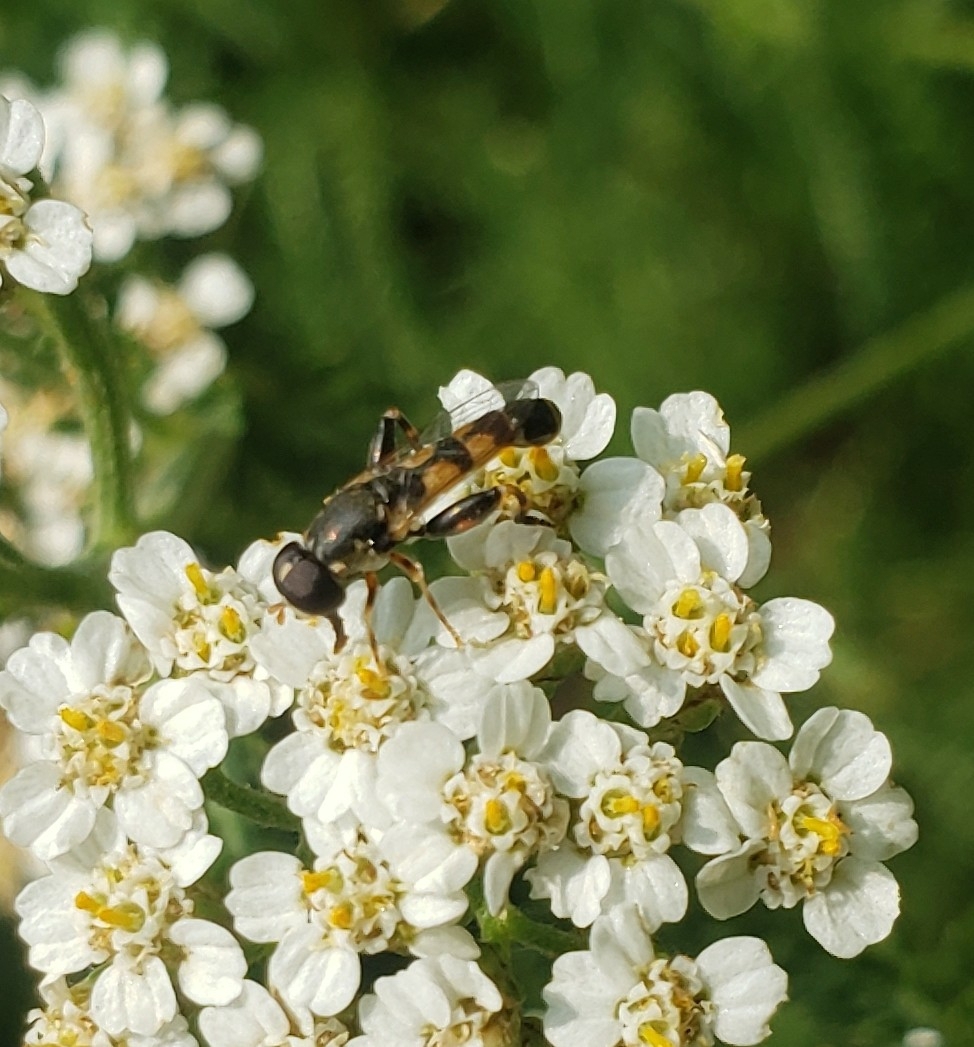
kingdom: Animalia
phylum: Arthropoda
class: Insecta
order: Diptera
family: Syrphidae
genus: Syritta
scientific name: Syritta pipiens
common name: Hover fly
